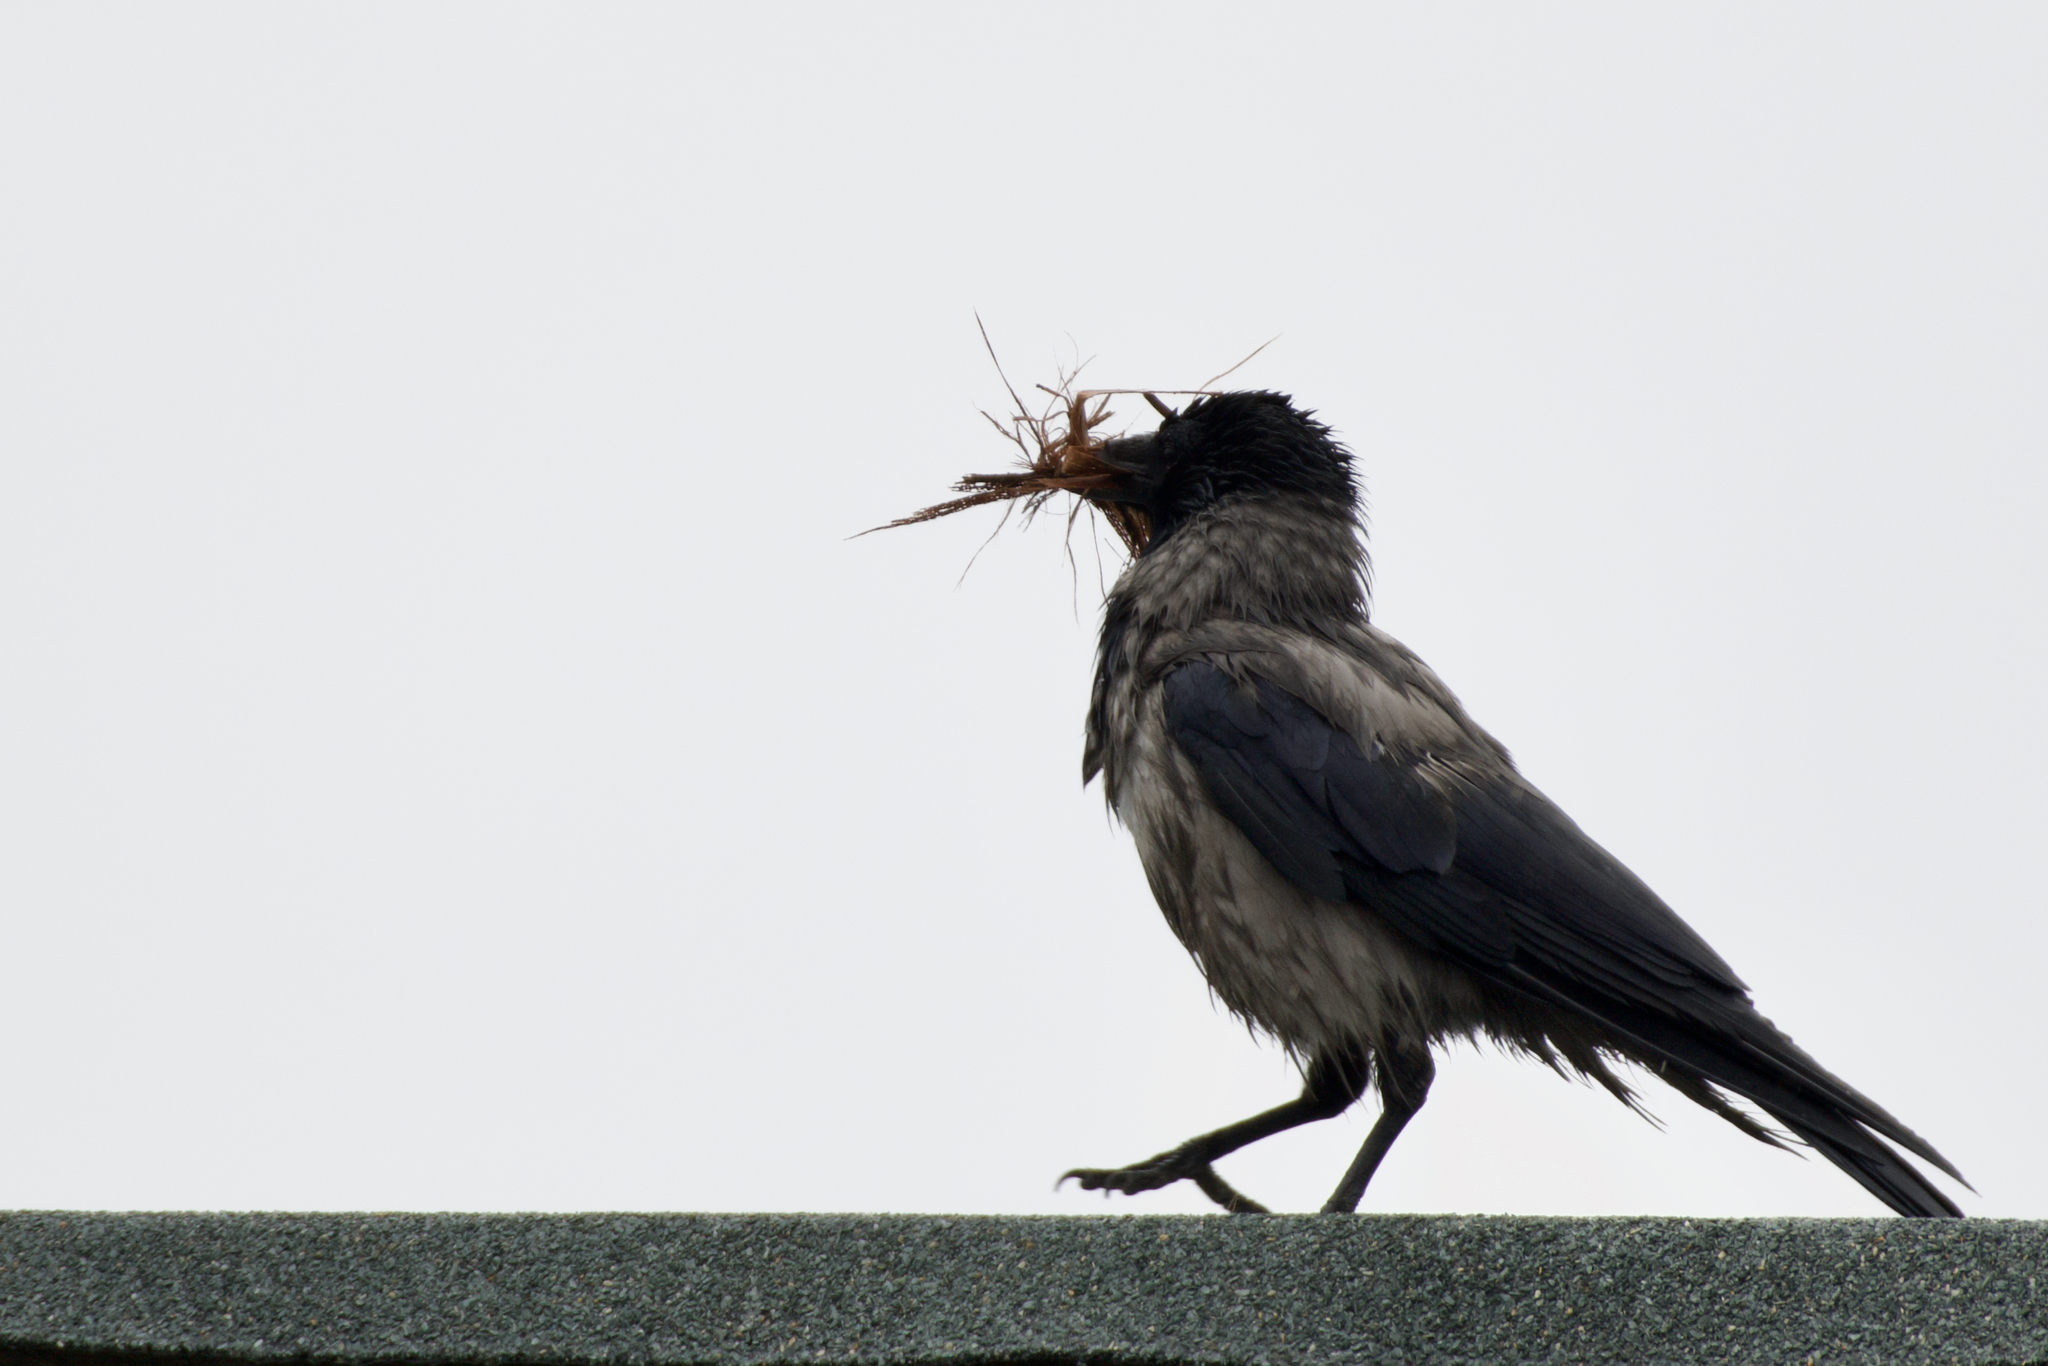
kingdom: Animalia
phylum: Chordata
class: Aves
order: Passeriformes
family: Corvidae
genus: Corvus
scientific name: Corvus cornix
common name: Hooded crow
